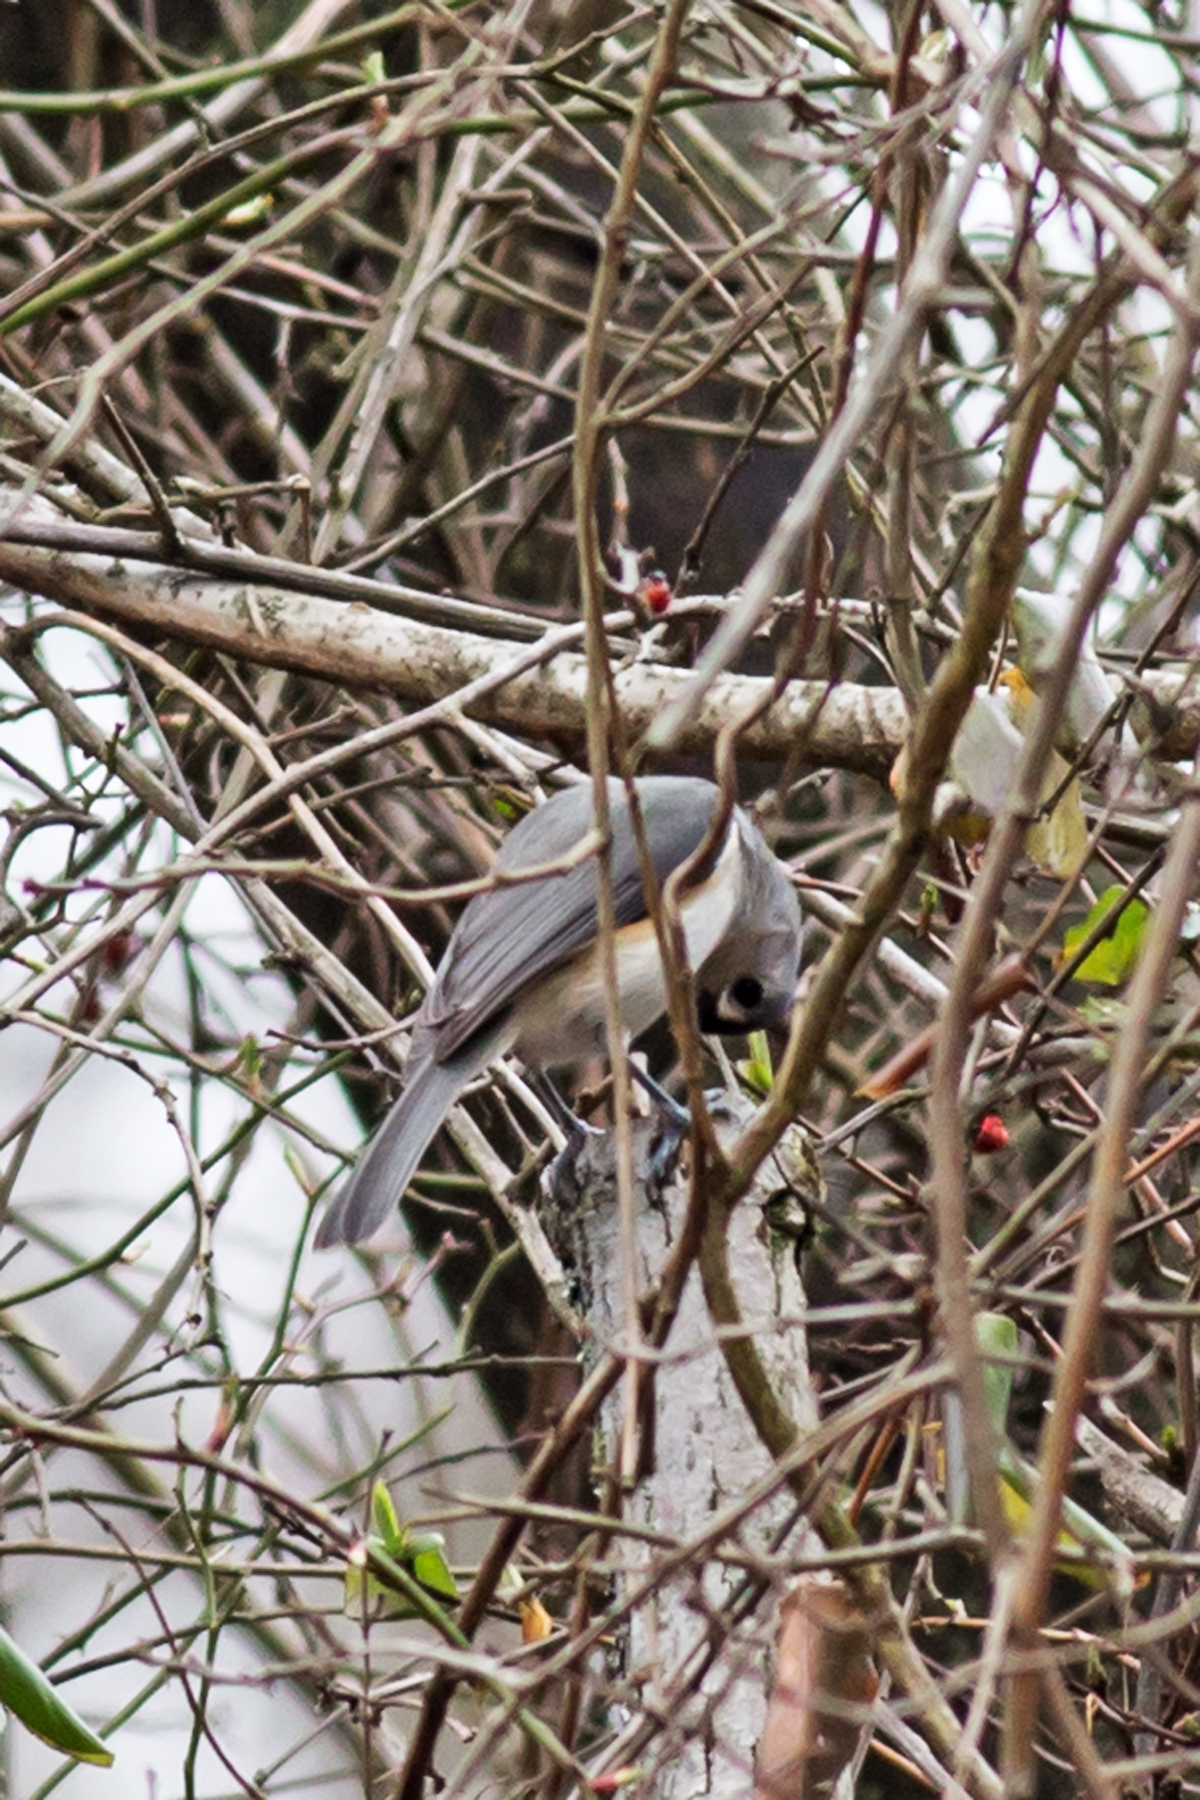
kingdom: Animalia
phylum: Chordata
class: Aves
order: Passeriformes
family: Paridae
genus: Baeolophus
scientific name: Baeolophus bicolor
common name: Tufted titmouse
